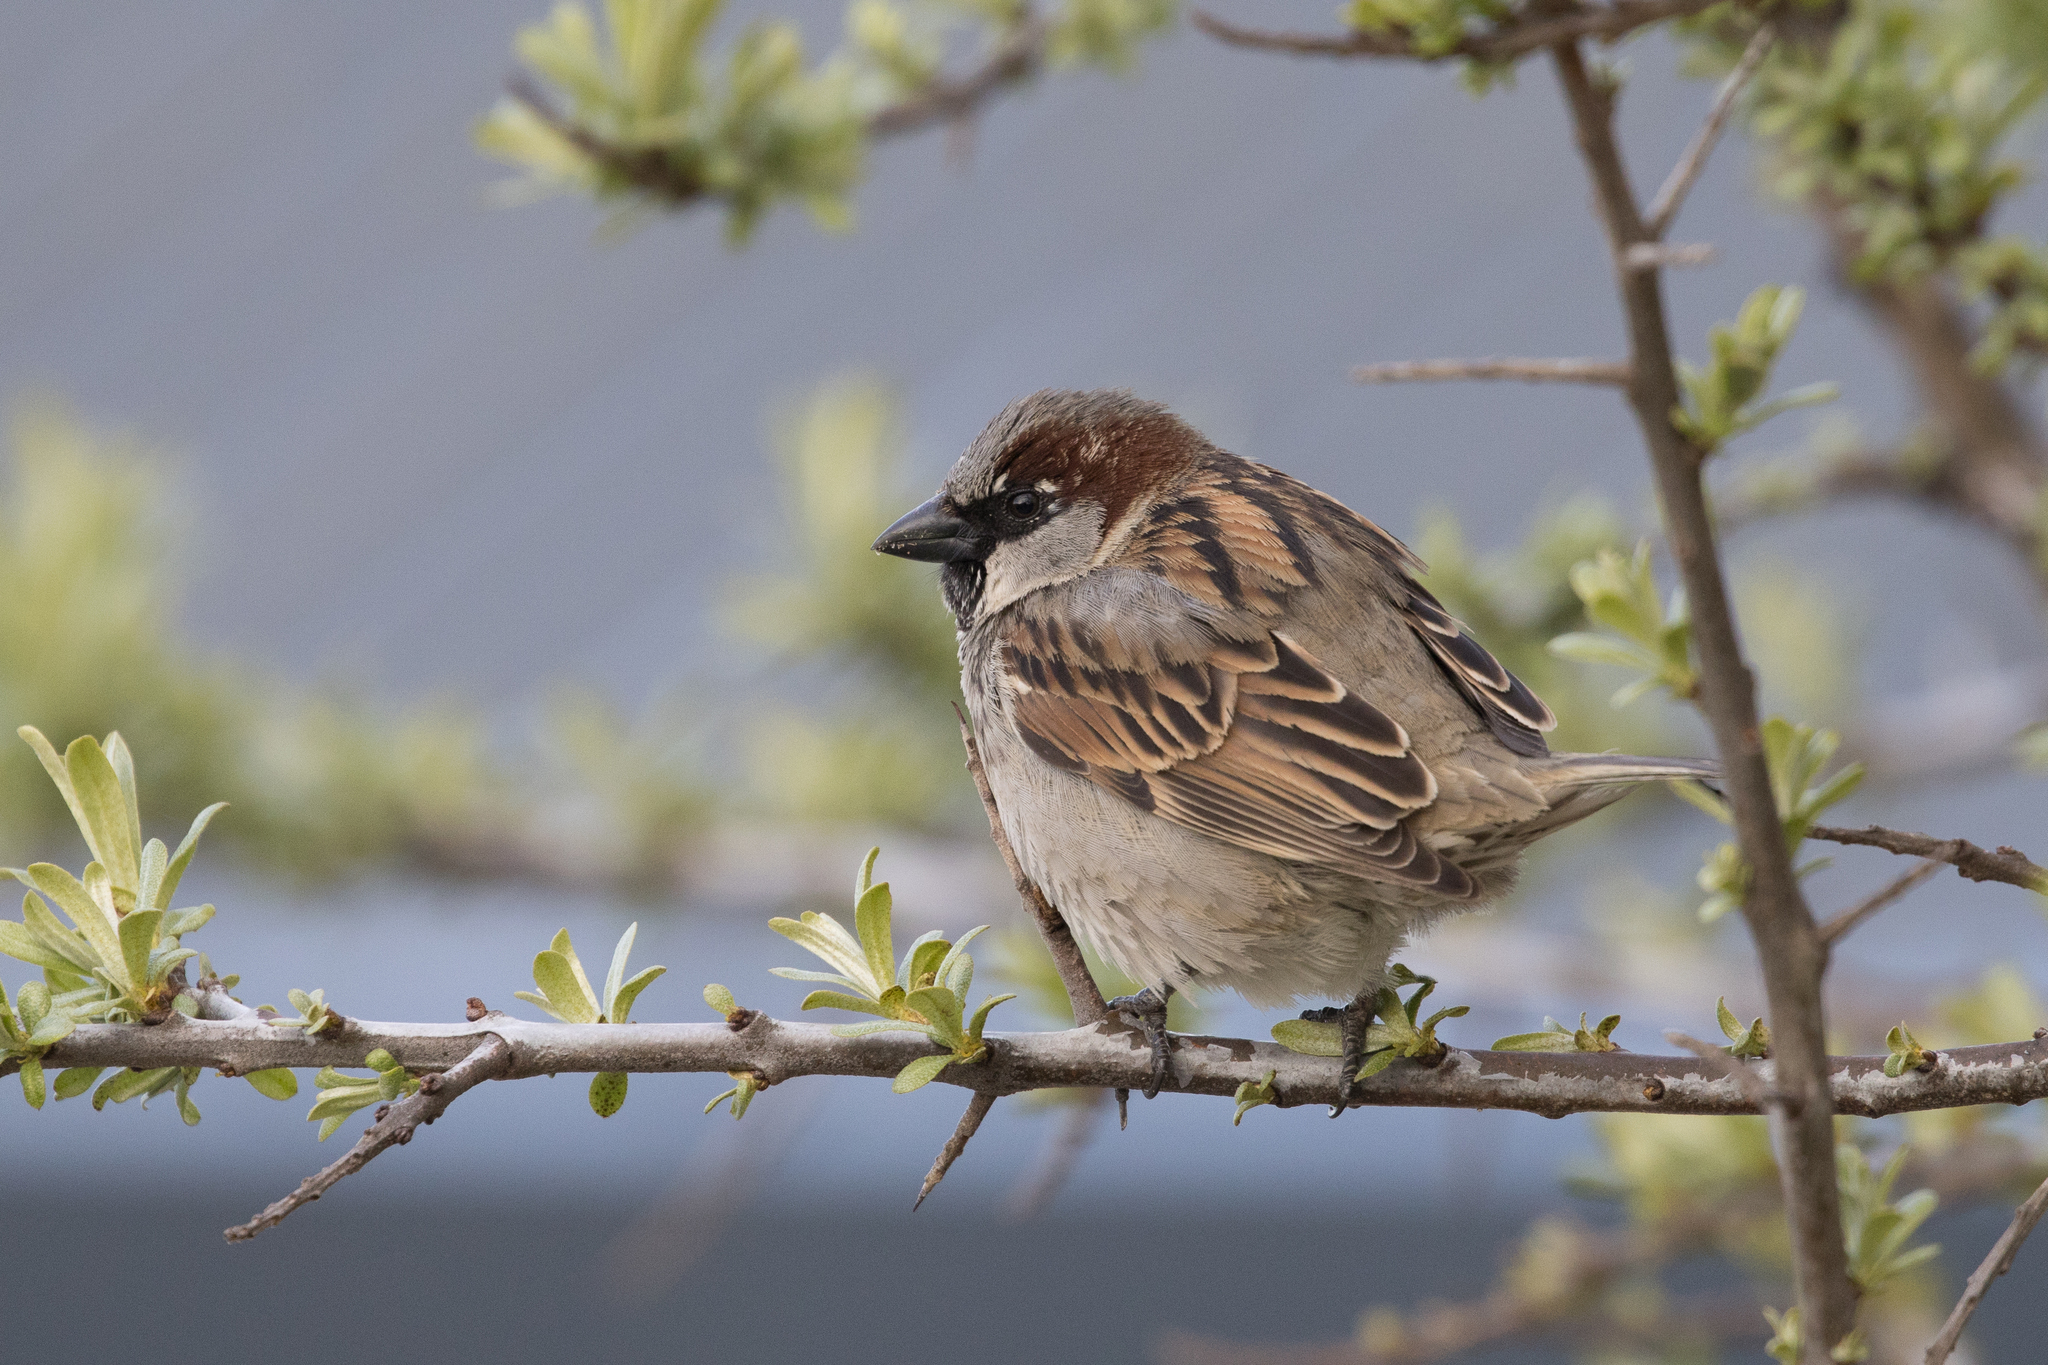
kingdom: Animalia
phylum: Chordata
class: Aves
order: Passeriformes
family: Passeridae
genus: Passer
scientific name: Passer domesticus
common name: House sparrow
